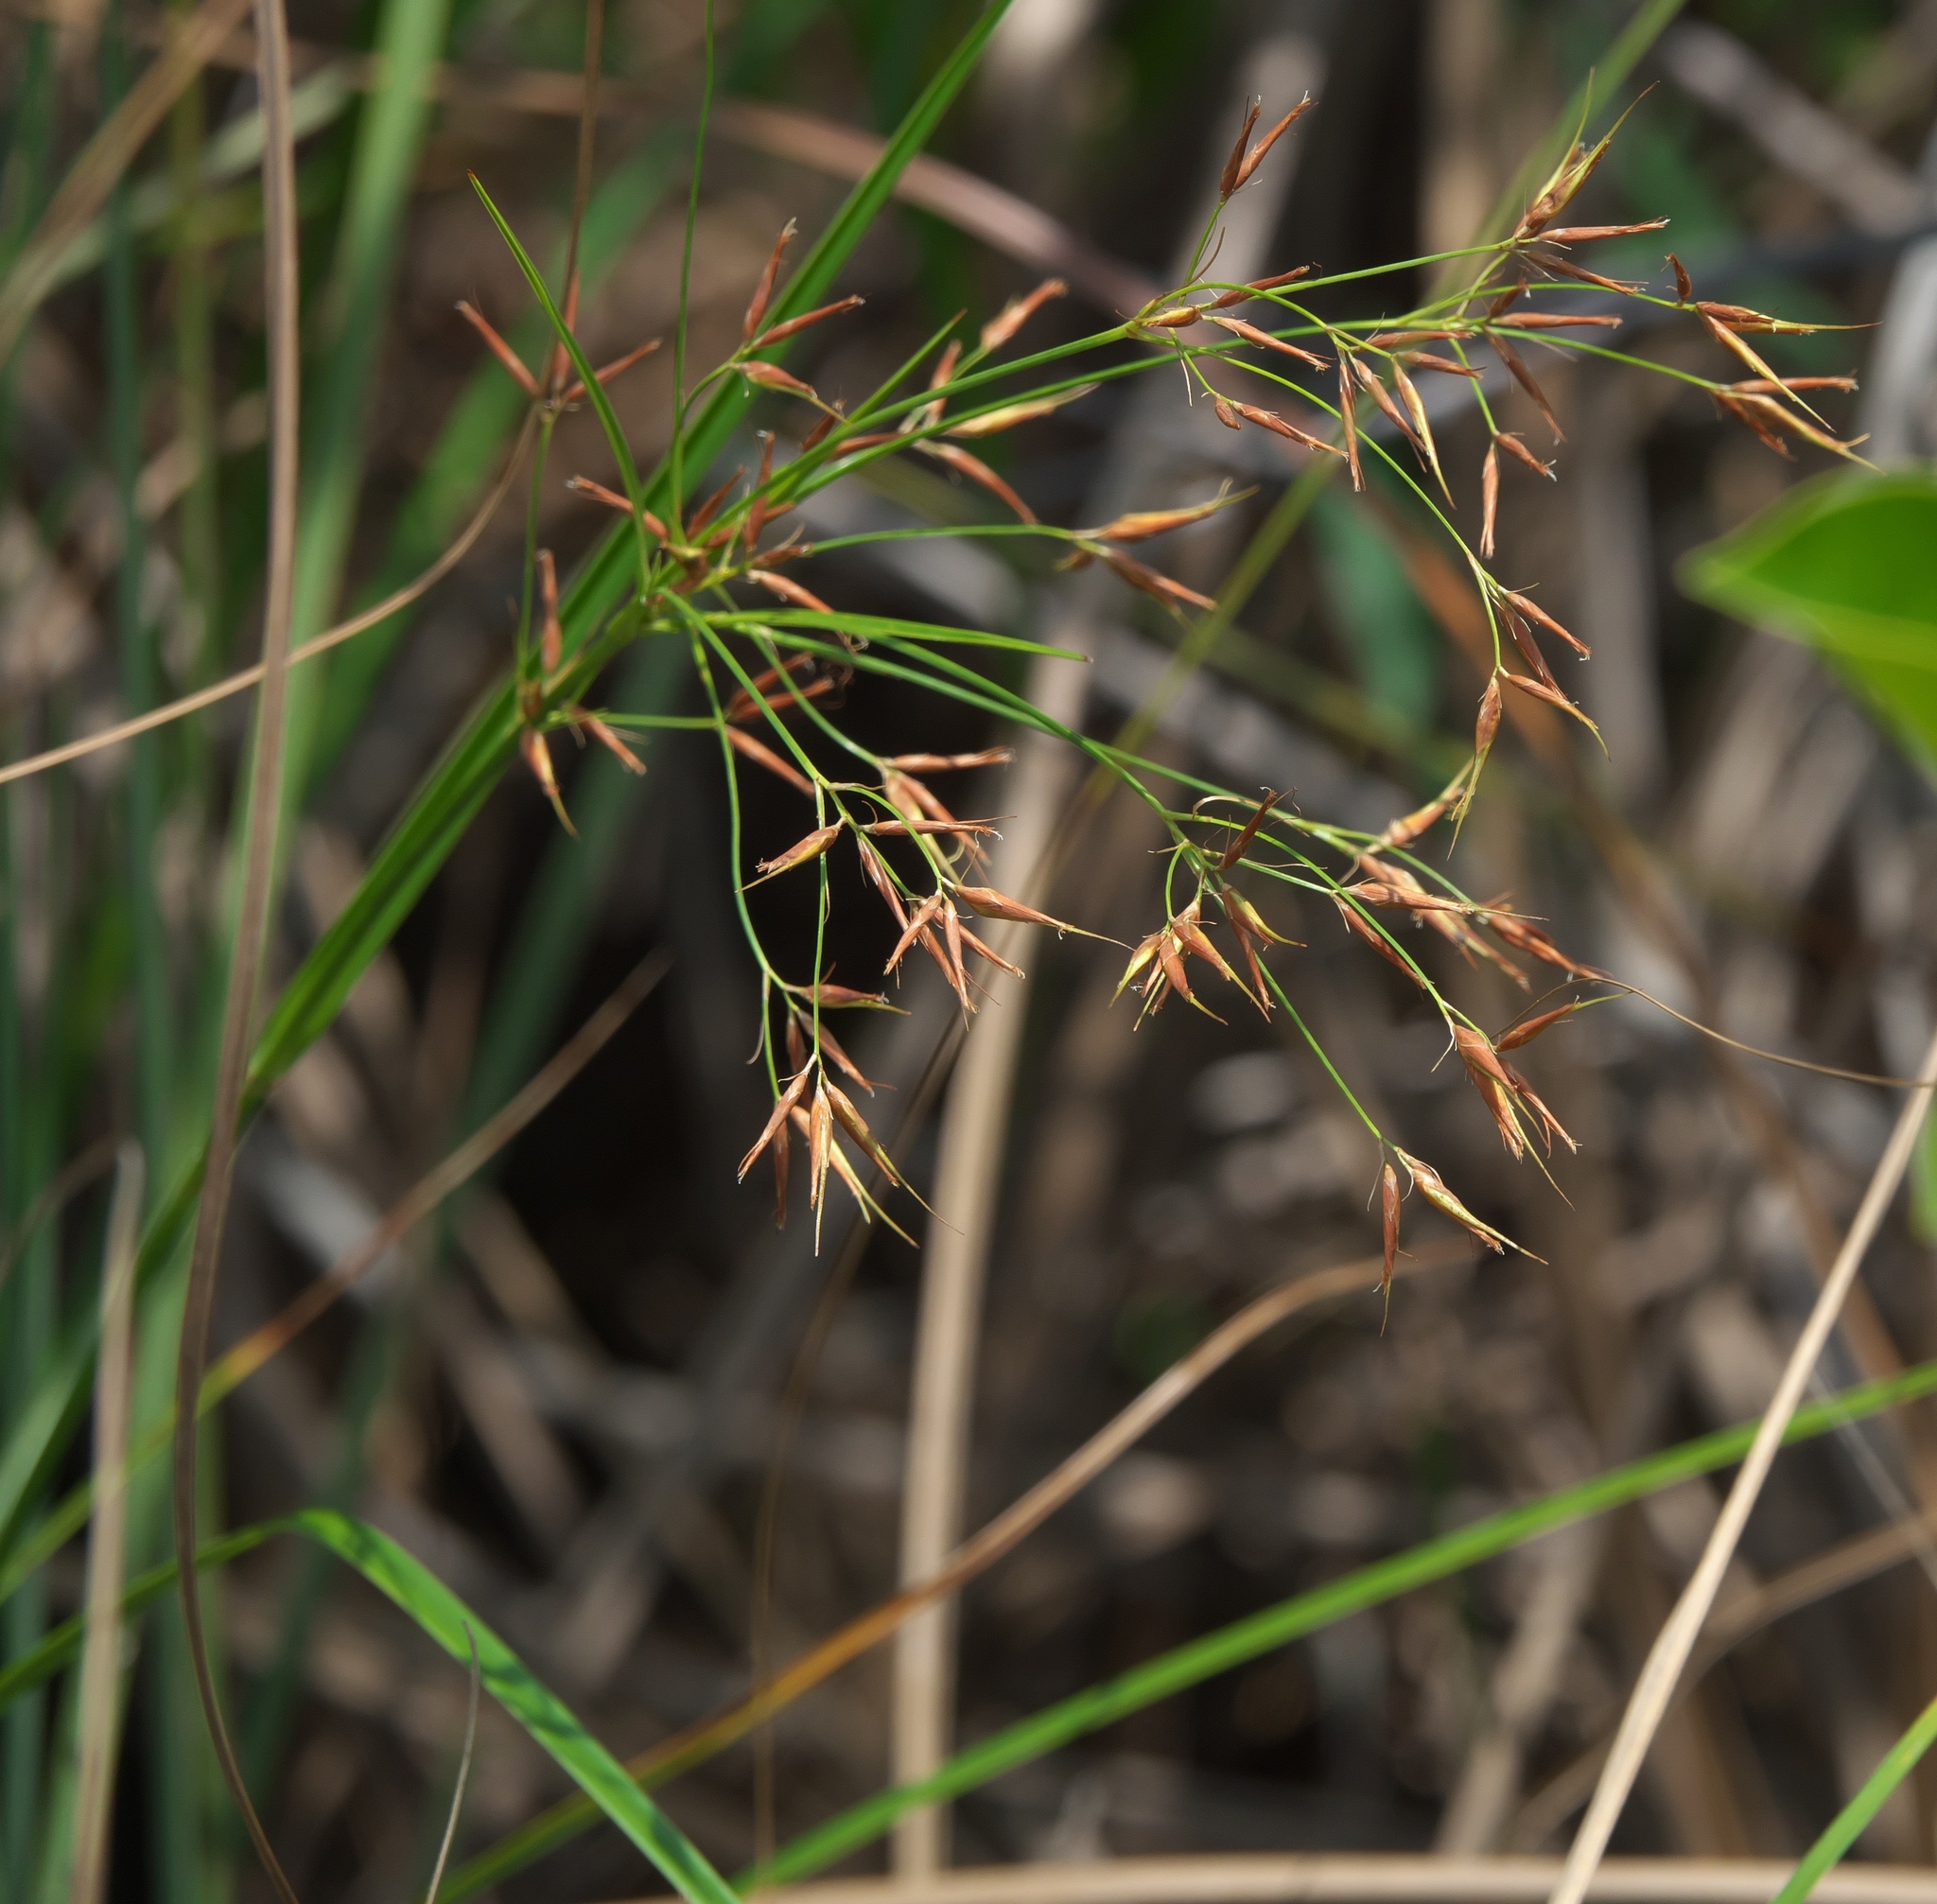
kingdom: Plantae
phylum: Tracheophyta
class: Liliopsida
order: Poales
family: Cyperaceae
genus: Rhynchospora
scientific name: Rhynchospora inundata
